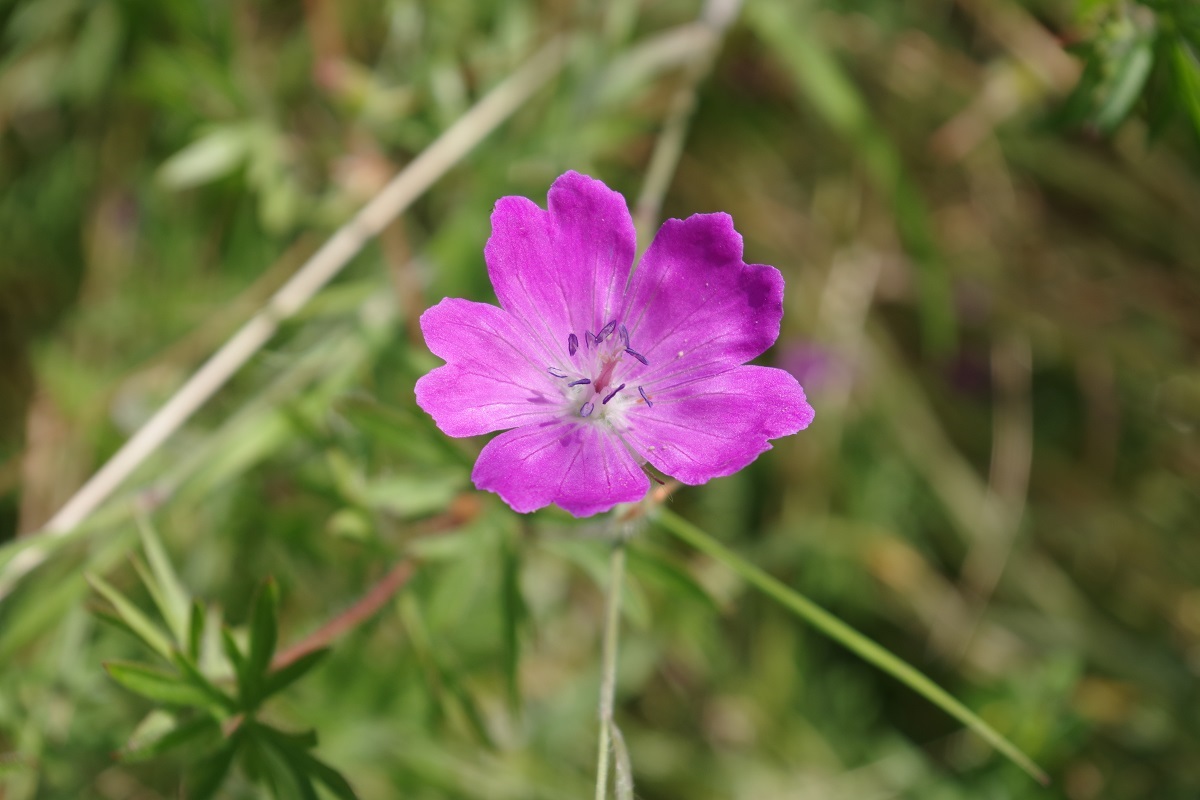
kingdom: Plantae
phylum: Tracheophyta
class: Magnoliopsida
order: Geraniales
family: Geraniaceae
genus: Geranium
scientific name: Geranium sanguineum
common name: Bloody crane's-bill
